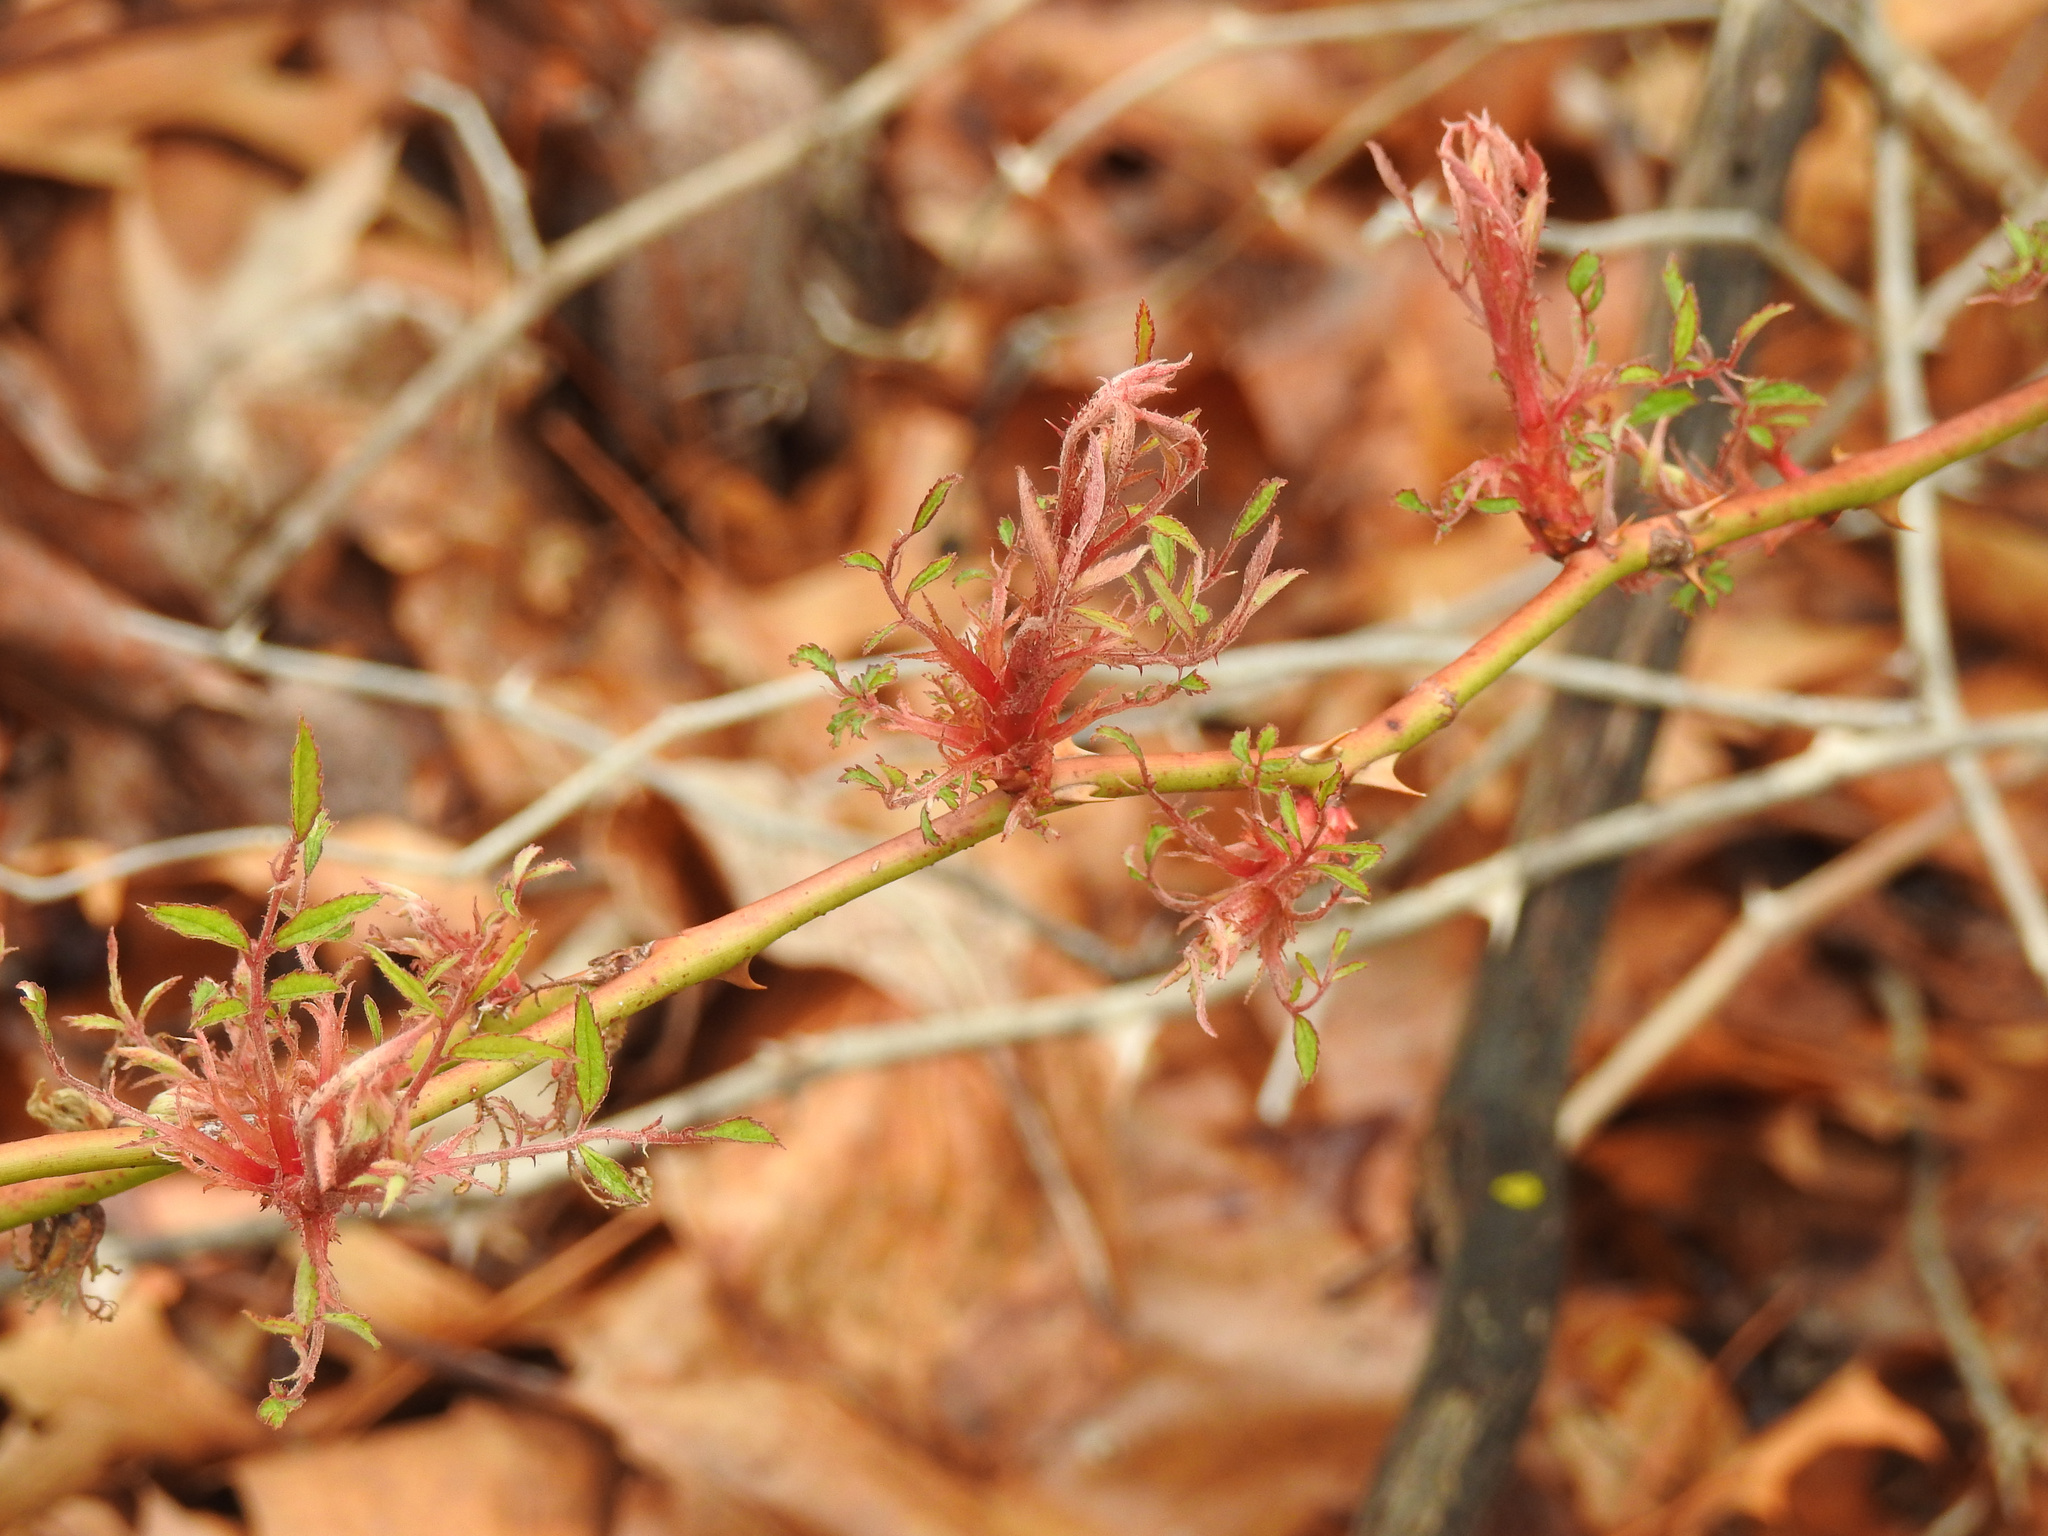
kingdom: Viruses
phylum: Negarnaviricota
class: Ellioviricetes
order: Bunyavirales
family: Fimoviridae
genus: Emaravirus
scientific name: Emaravirus rosae
